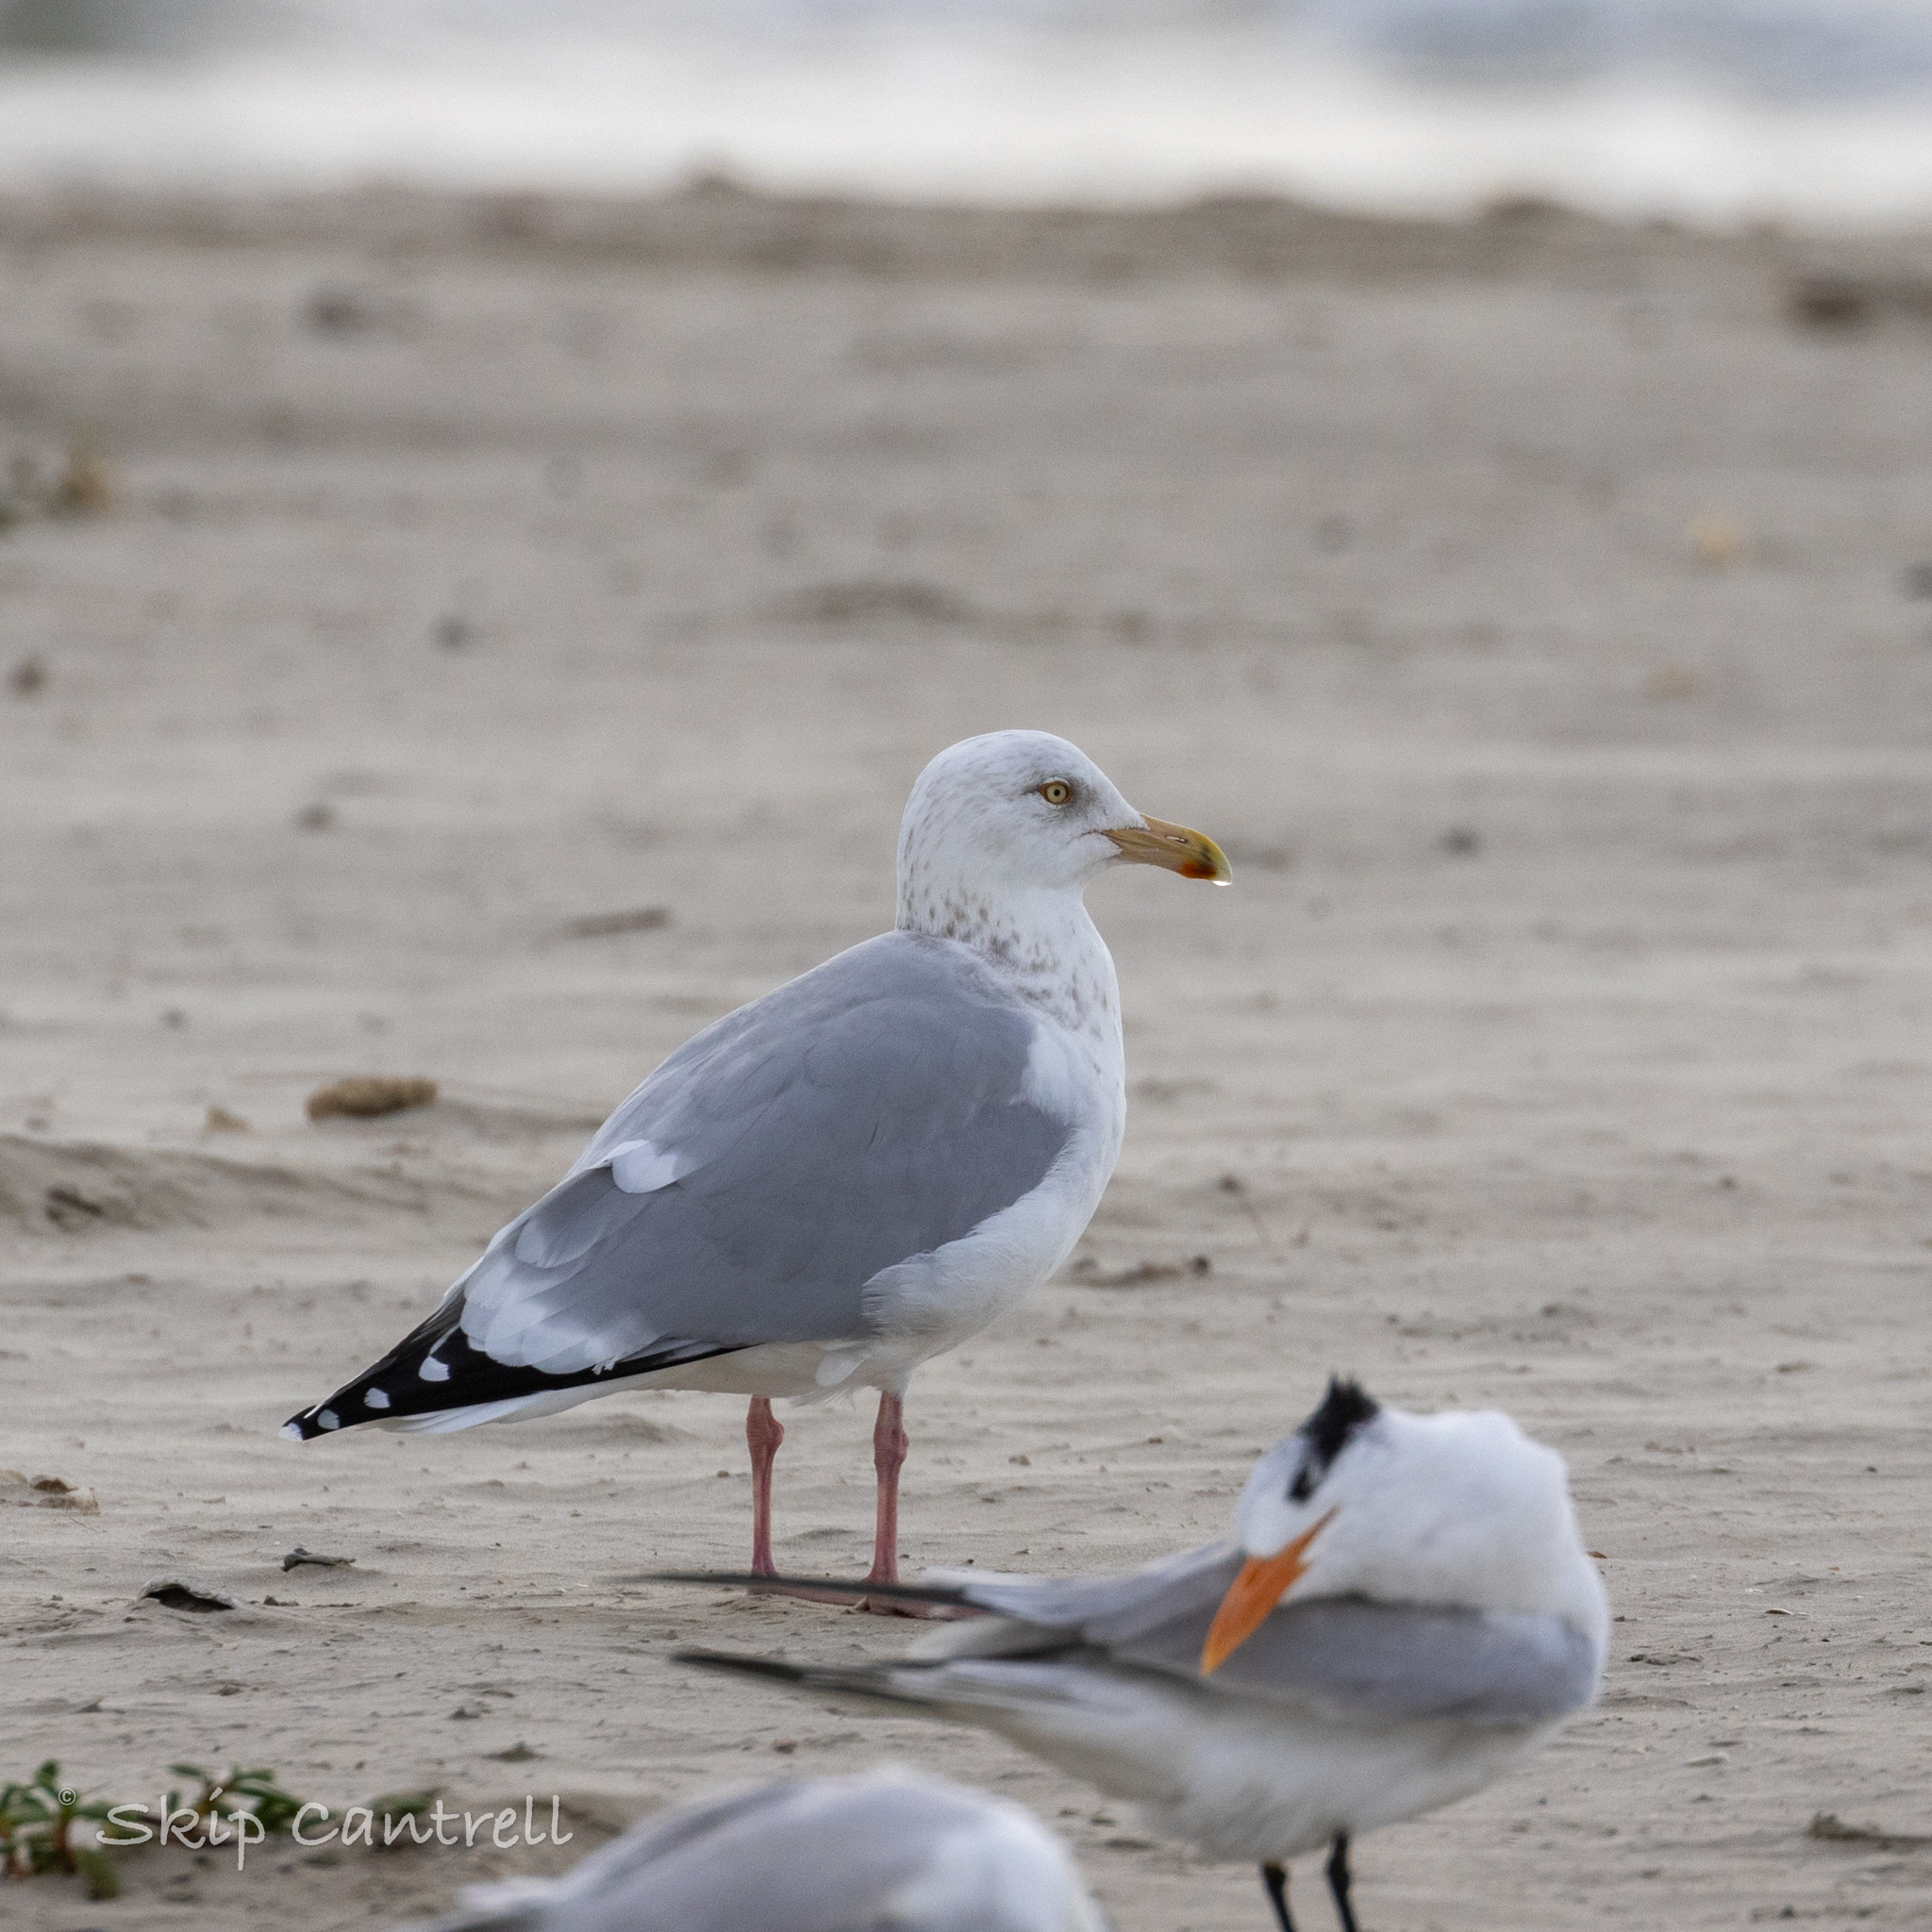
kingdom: Animalia
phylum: Chordata
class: Aves
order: Charadriiformes
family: Laridae
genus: Larus
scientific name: Larus argentatus
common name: Herring gull
